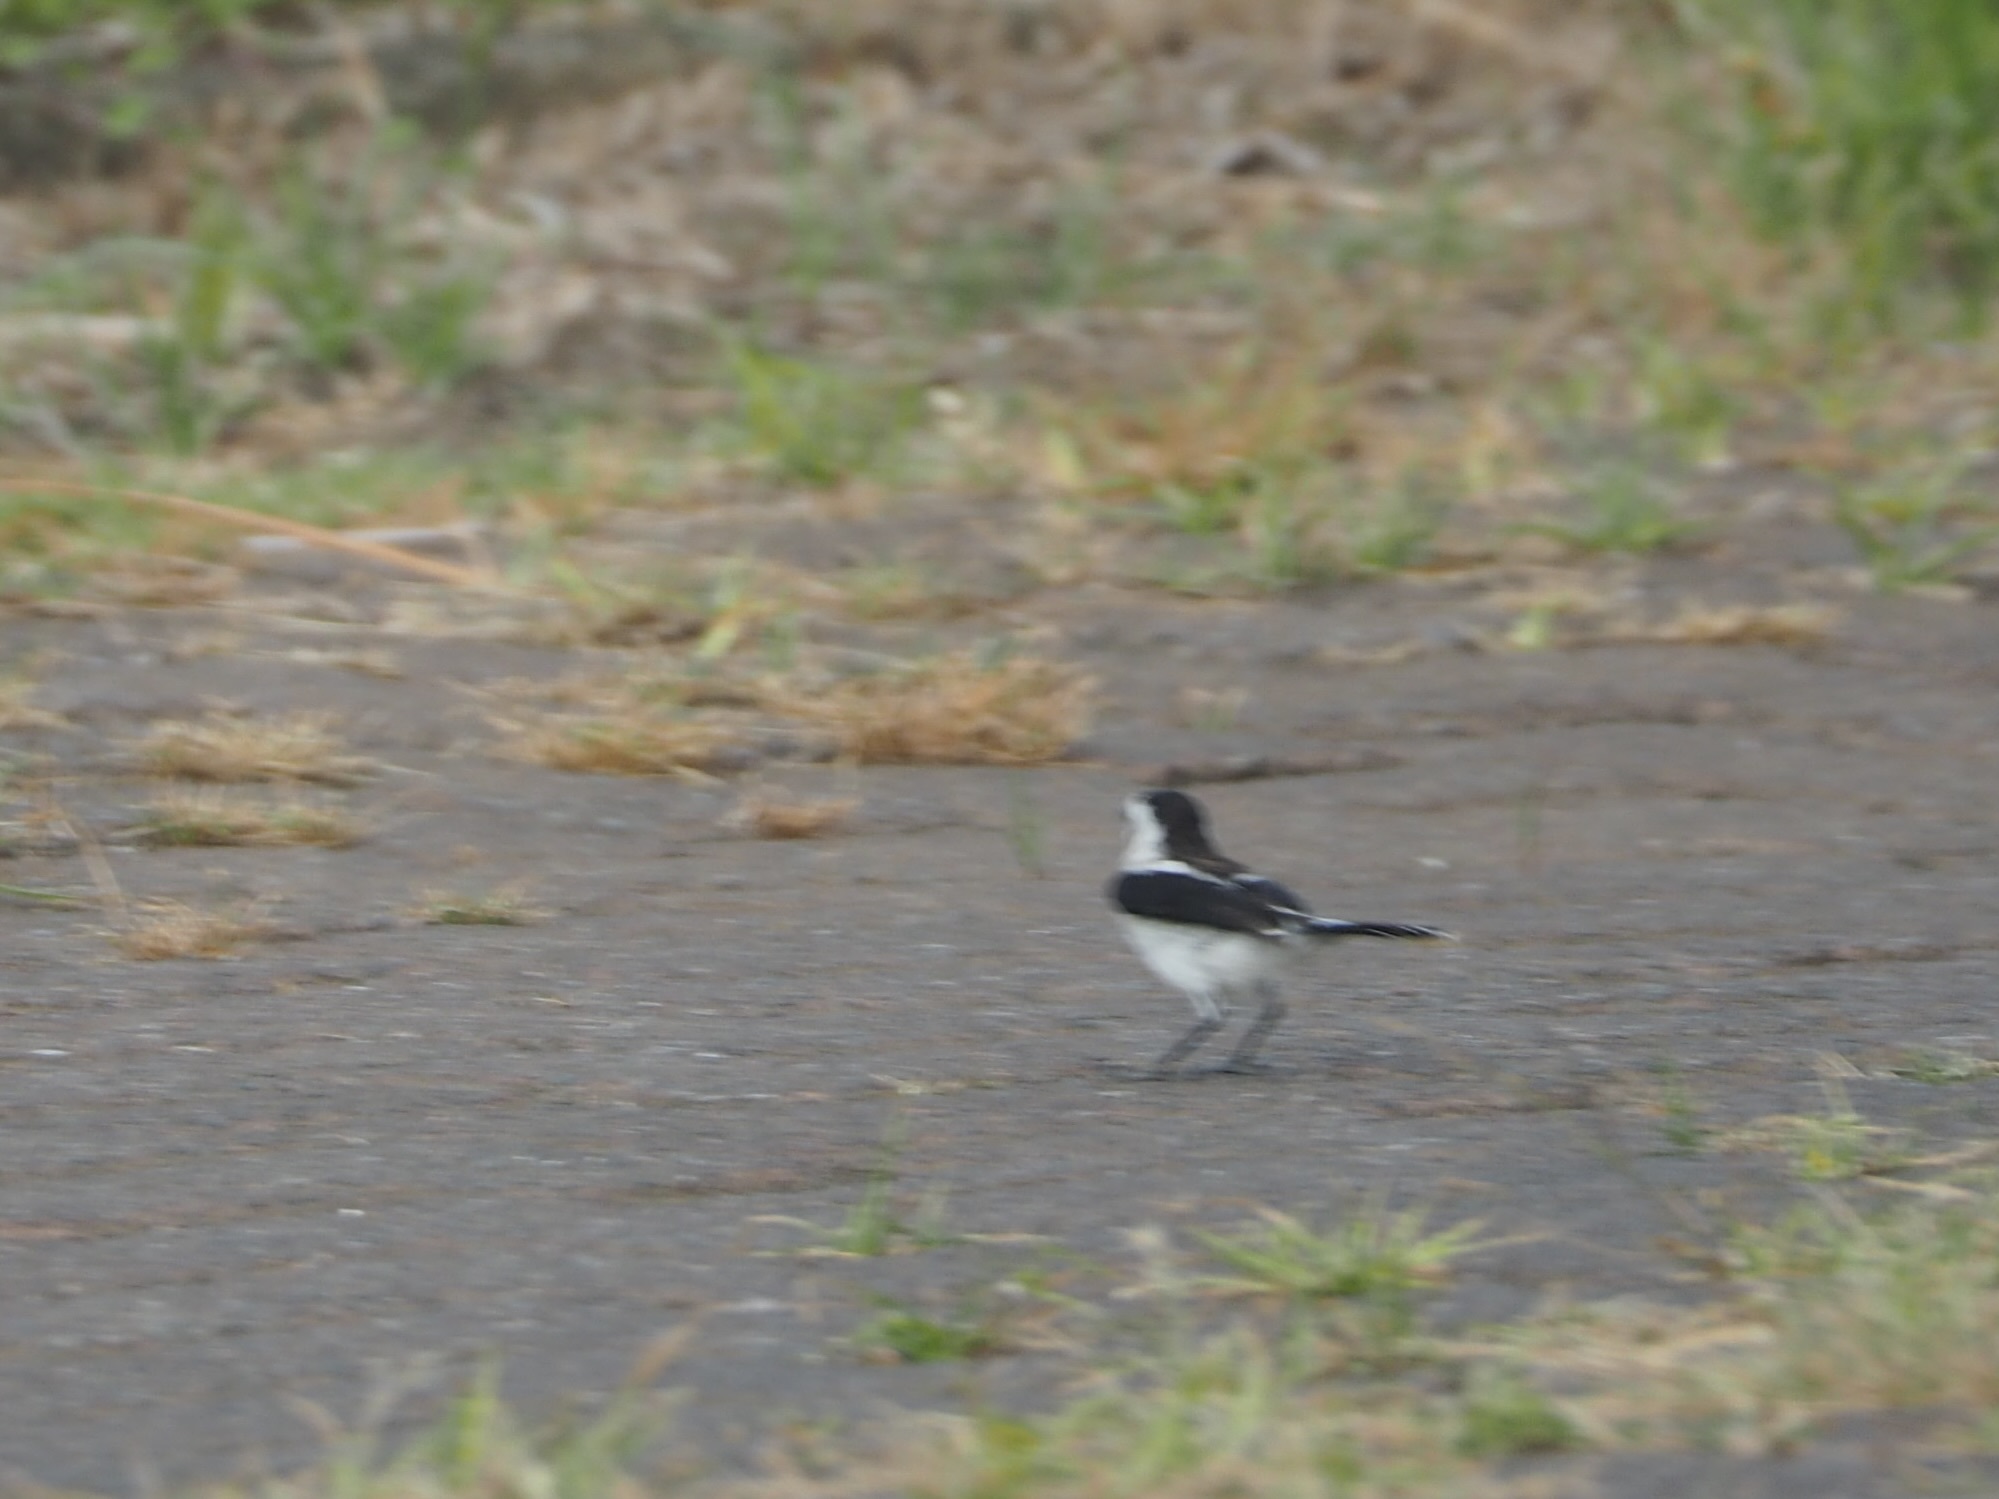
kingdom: Animalia
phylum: Chordata
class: Aves
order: Passeriformes
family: Tyrannidae
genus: Fluvicola
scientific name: Fluvicola pica
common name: Pied water-tyrant
